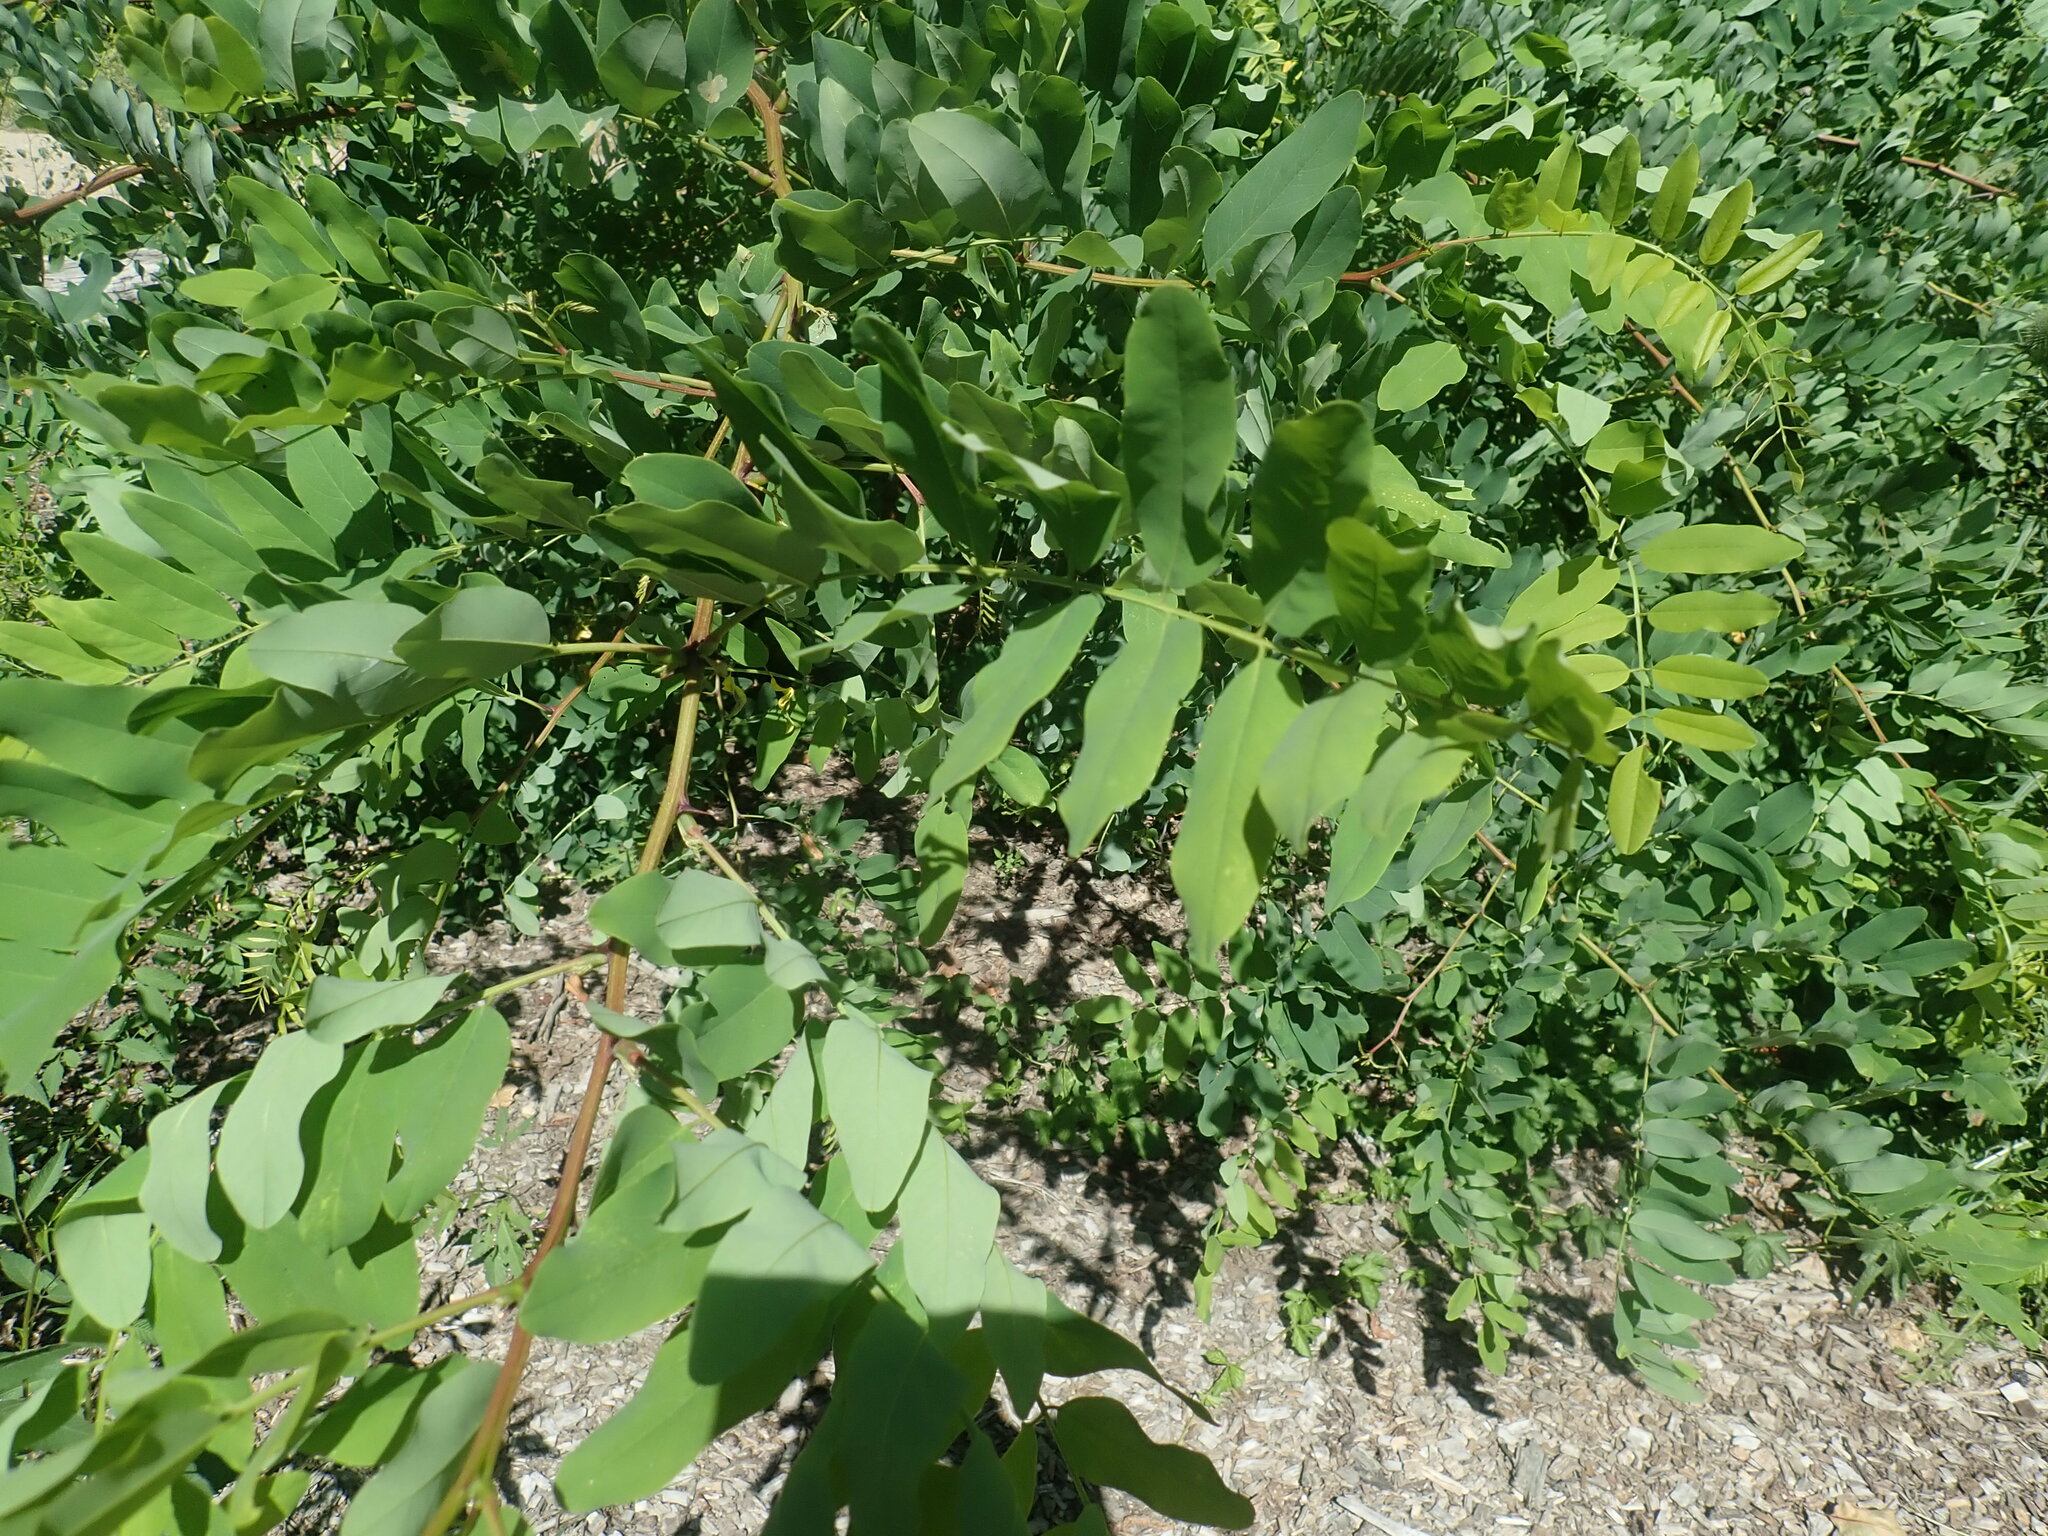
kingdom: Plantae
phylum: Tracheophyta
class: Magnoliopsida
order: Fabales
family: Fabaceae
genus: Robinia
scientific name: Robinia pseudoacacia
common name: Black locust
